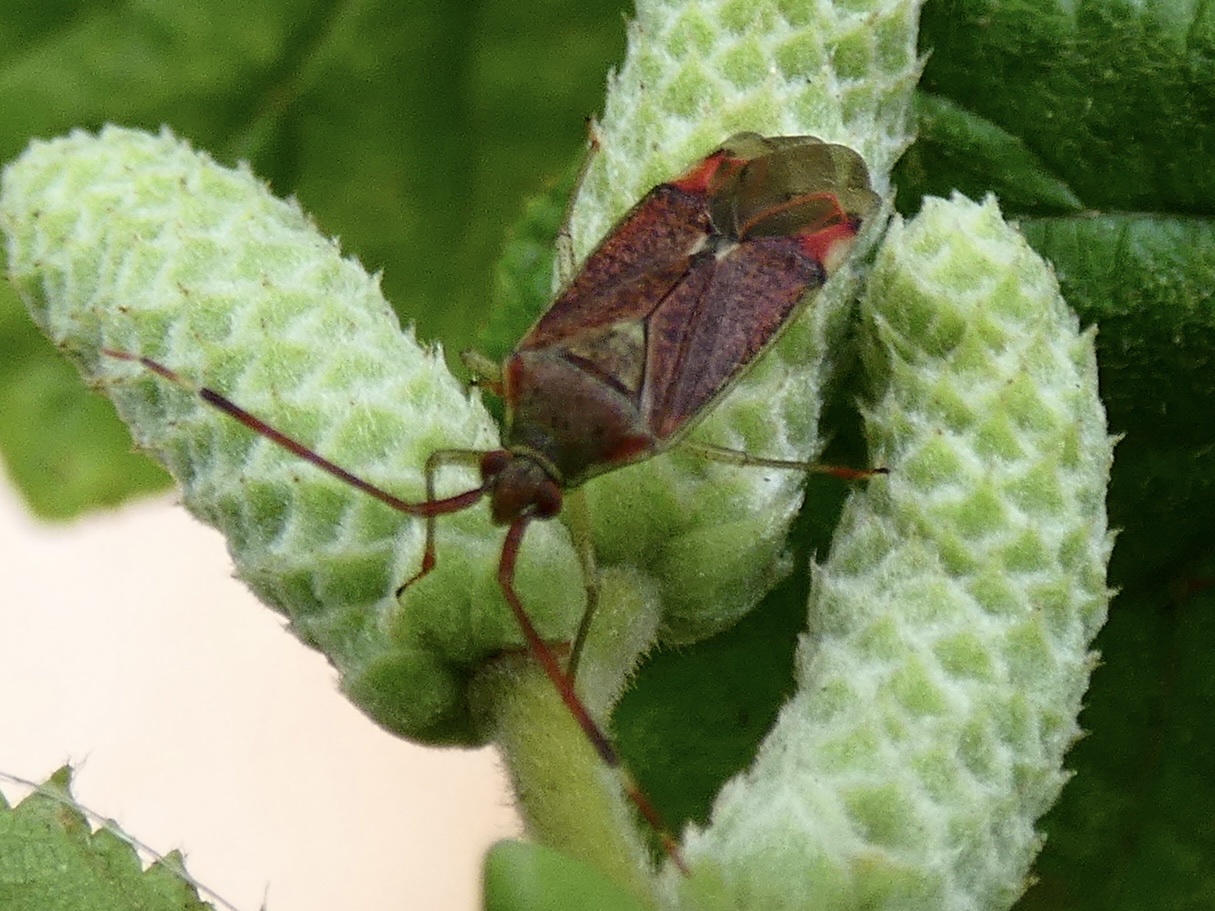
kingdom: Animalia
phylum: Arthropoda
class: Insecta
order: Hemiptera
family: Miridae
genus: Pantilius
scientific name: Pantilius tunicatus
